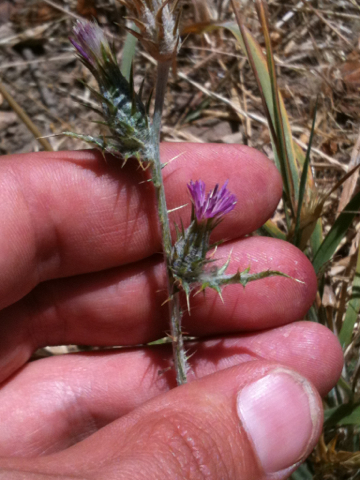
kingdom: Plantae
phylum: Tracheophyta
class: Magnoliopsida
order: Asterales
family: Asteraceae
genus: Carduus
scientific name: Carduus pycnocephalus
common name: Plymouth thistle
